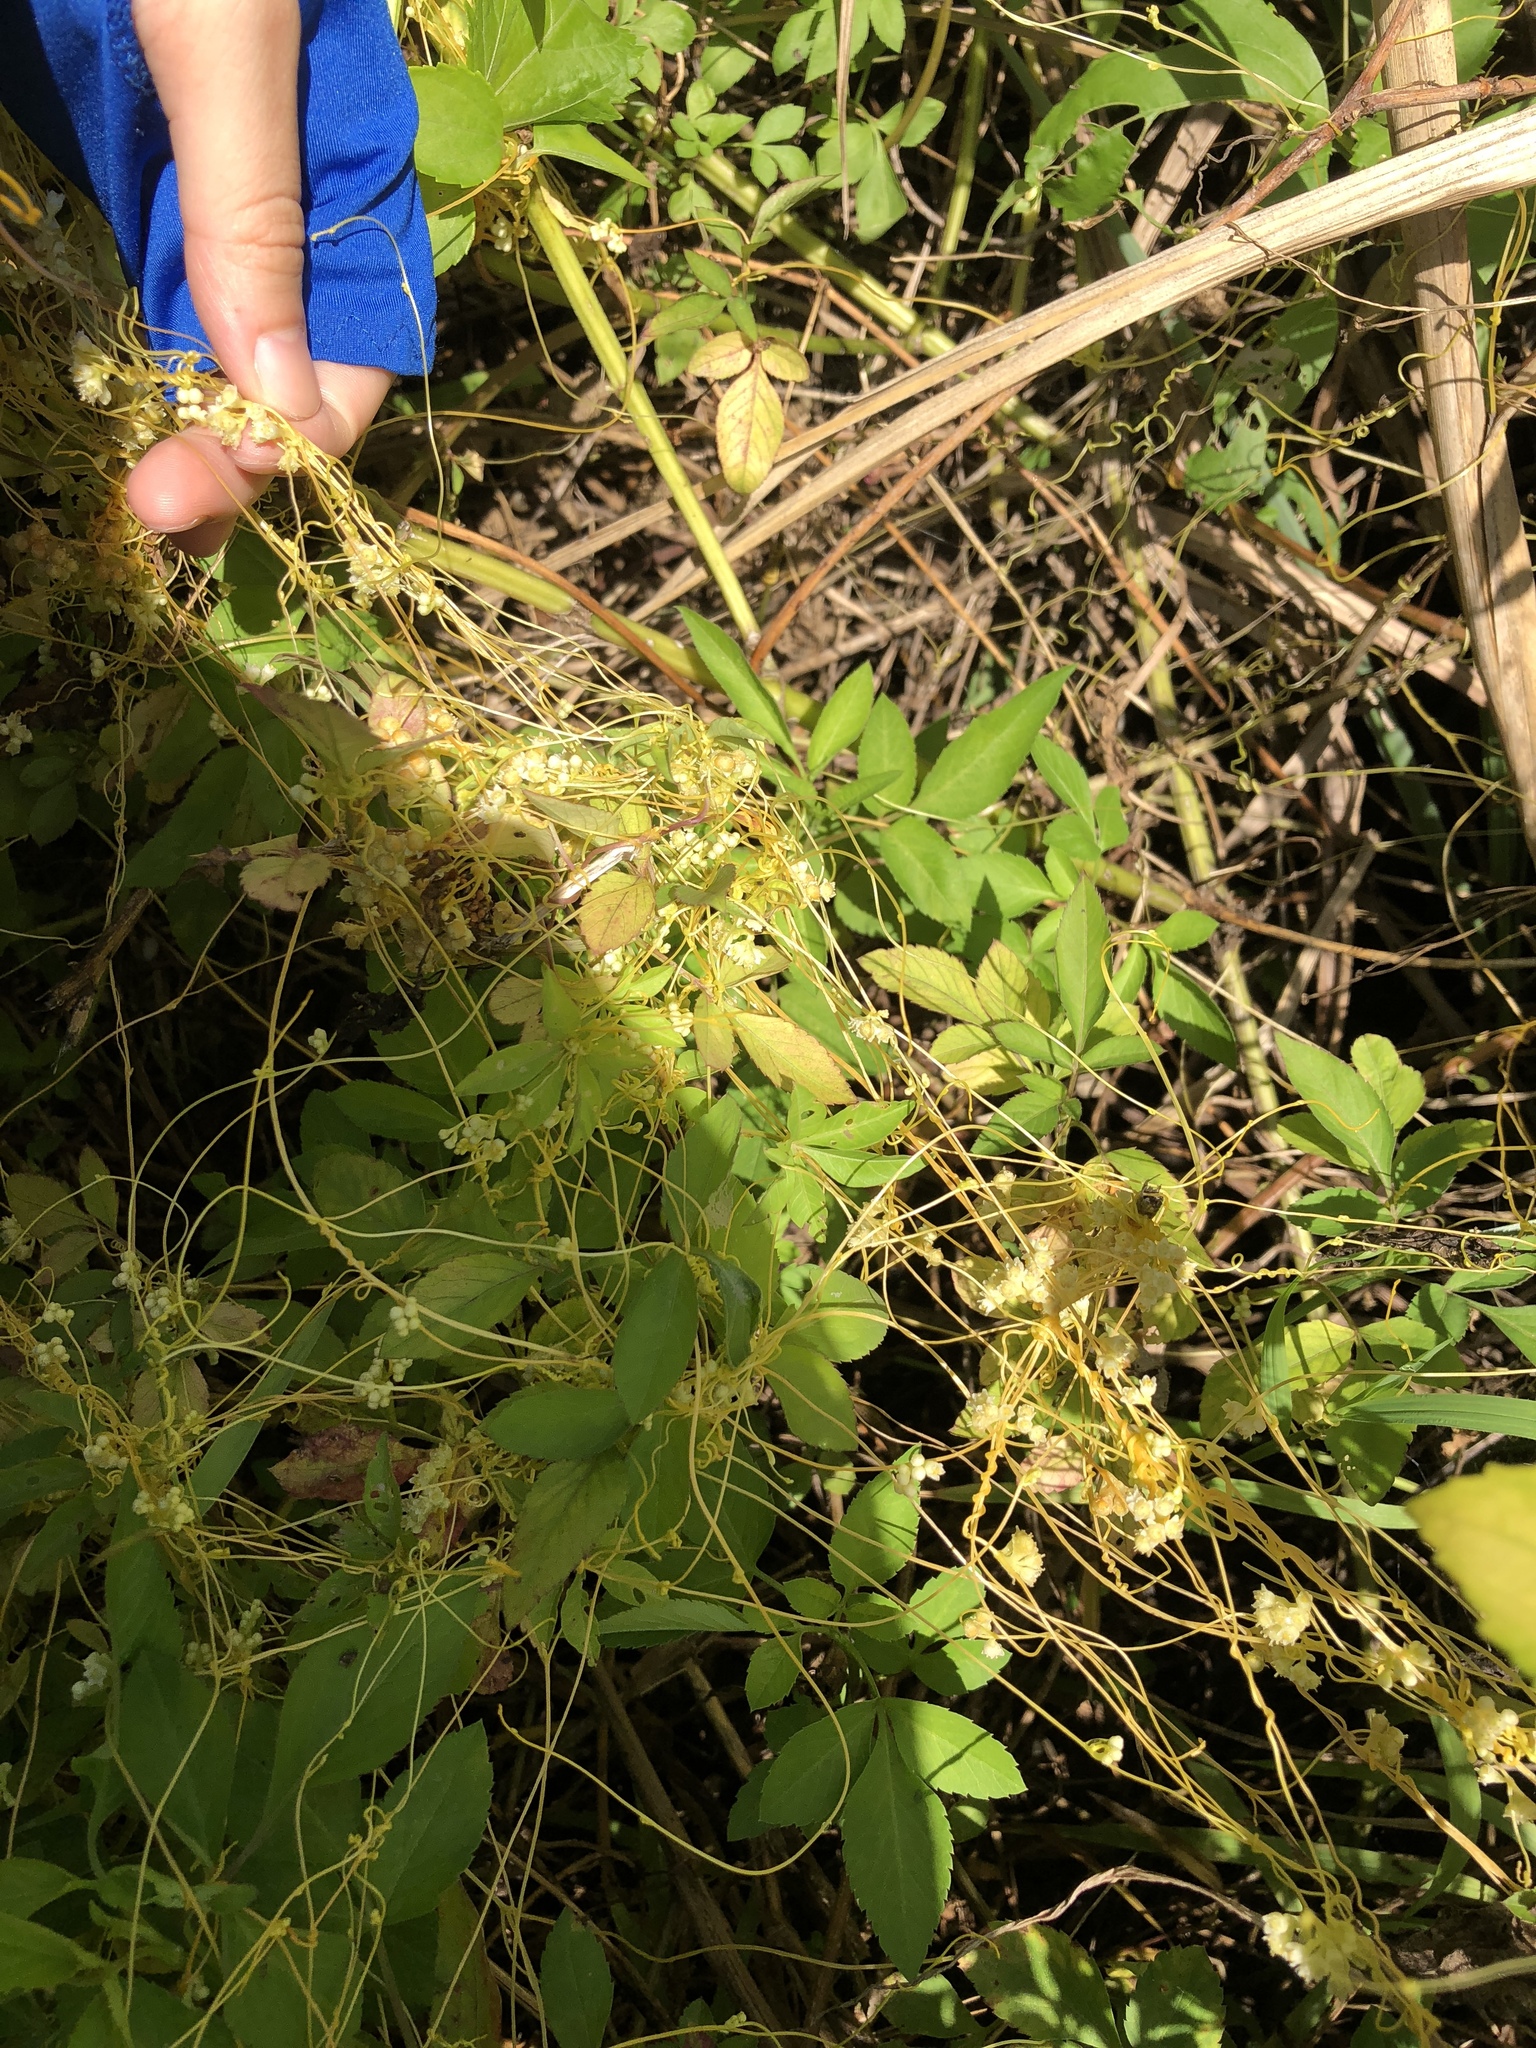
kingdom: Plantae
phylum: Tracheophyta
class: Magnoliopsida
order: Solanales
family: Convolvulaceae
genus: Cuscuta
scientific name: Cuscuta campestris
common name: Yellow dodder
